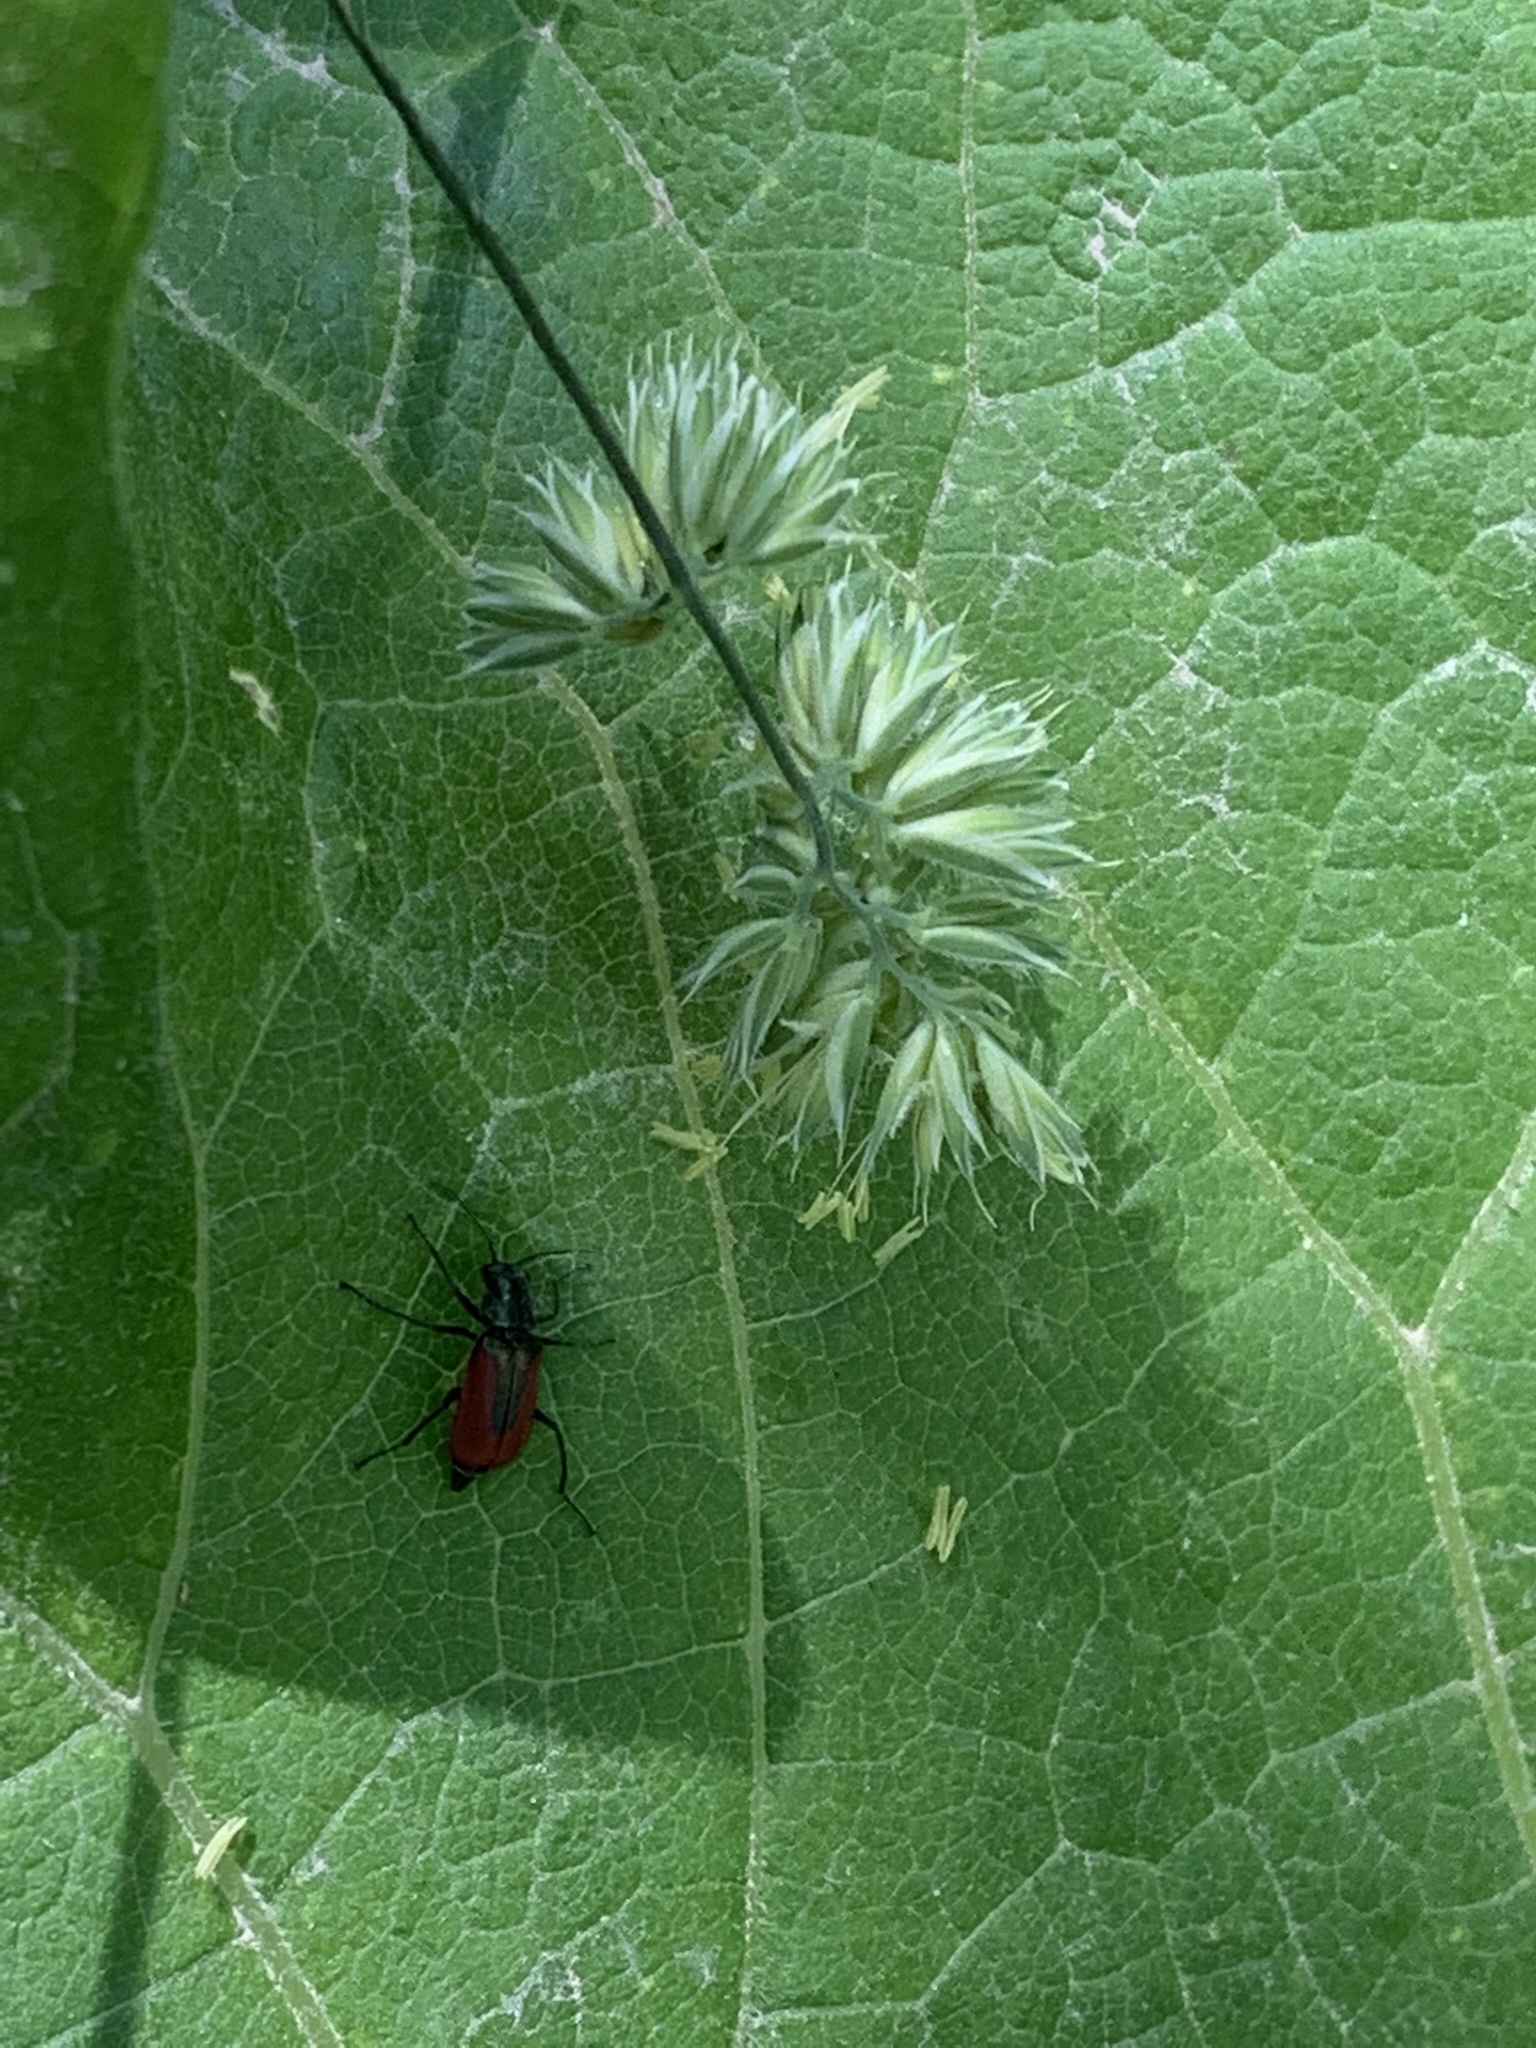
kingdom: Animalia
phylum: Arthropoda
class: Insecta
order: Coleoptera
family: Melyridae
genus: Malachius
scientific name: Malachius aeneus
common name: Scarlet malachite beetle
